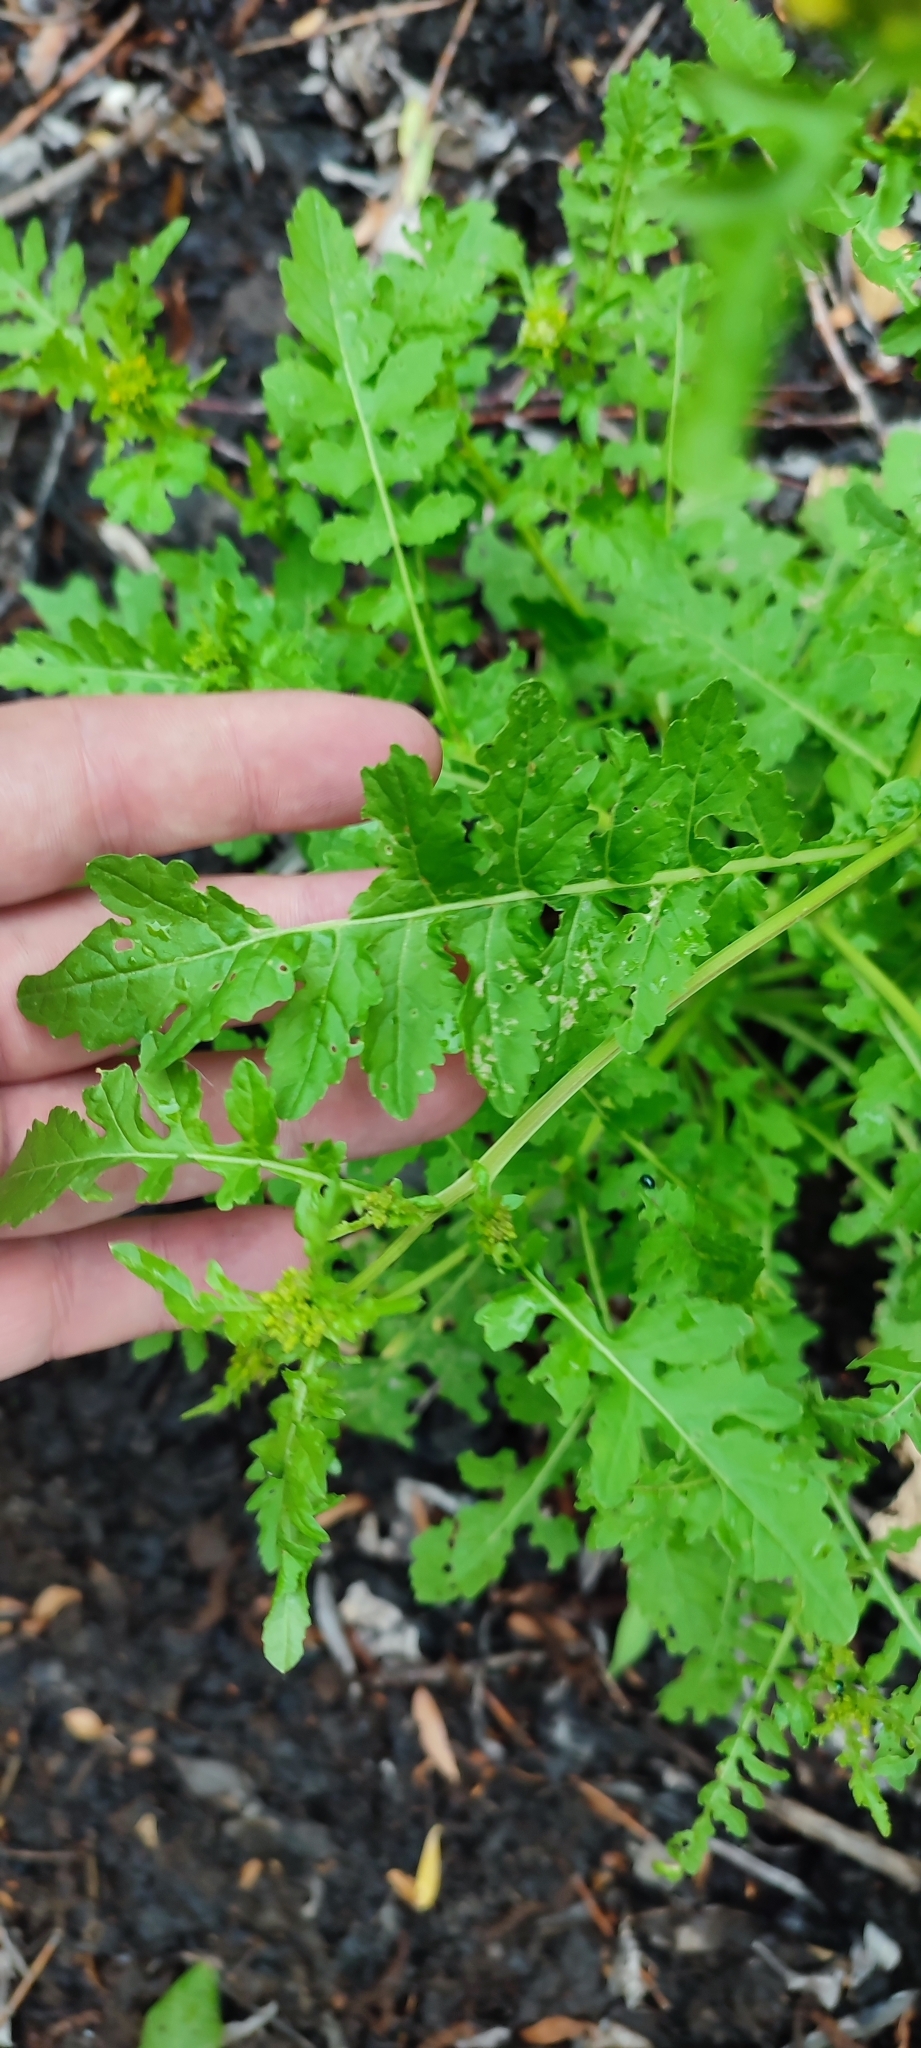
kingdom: Plantae
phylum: Tracheophyta
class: Magnoliopsida
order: Brassicales
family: Brassicaceae
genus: Rorippa
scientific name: Rorippa palustris
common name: Marsh yellow-cress
